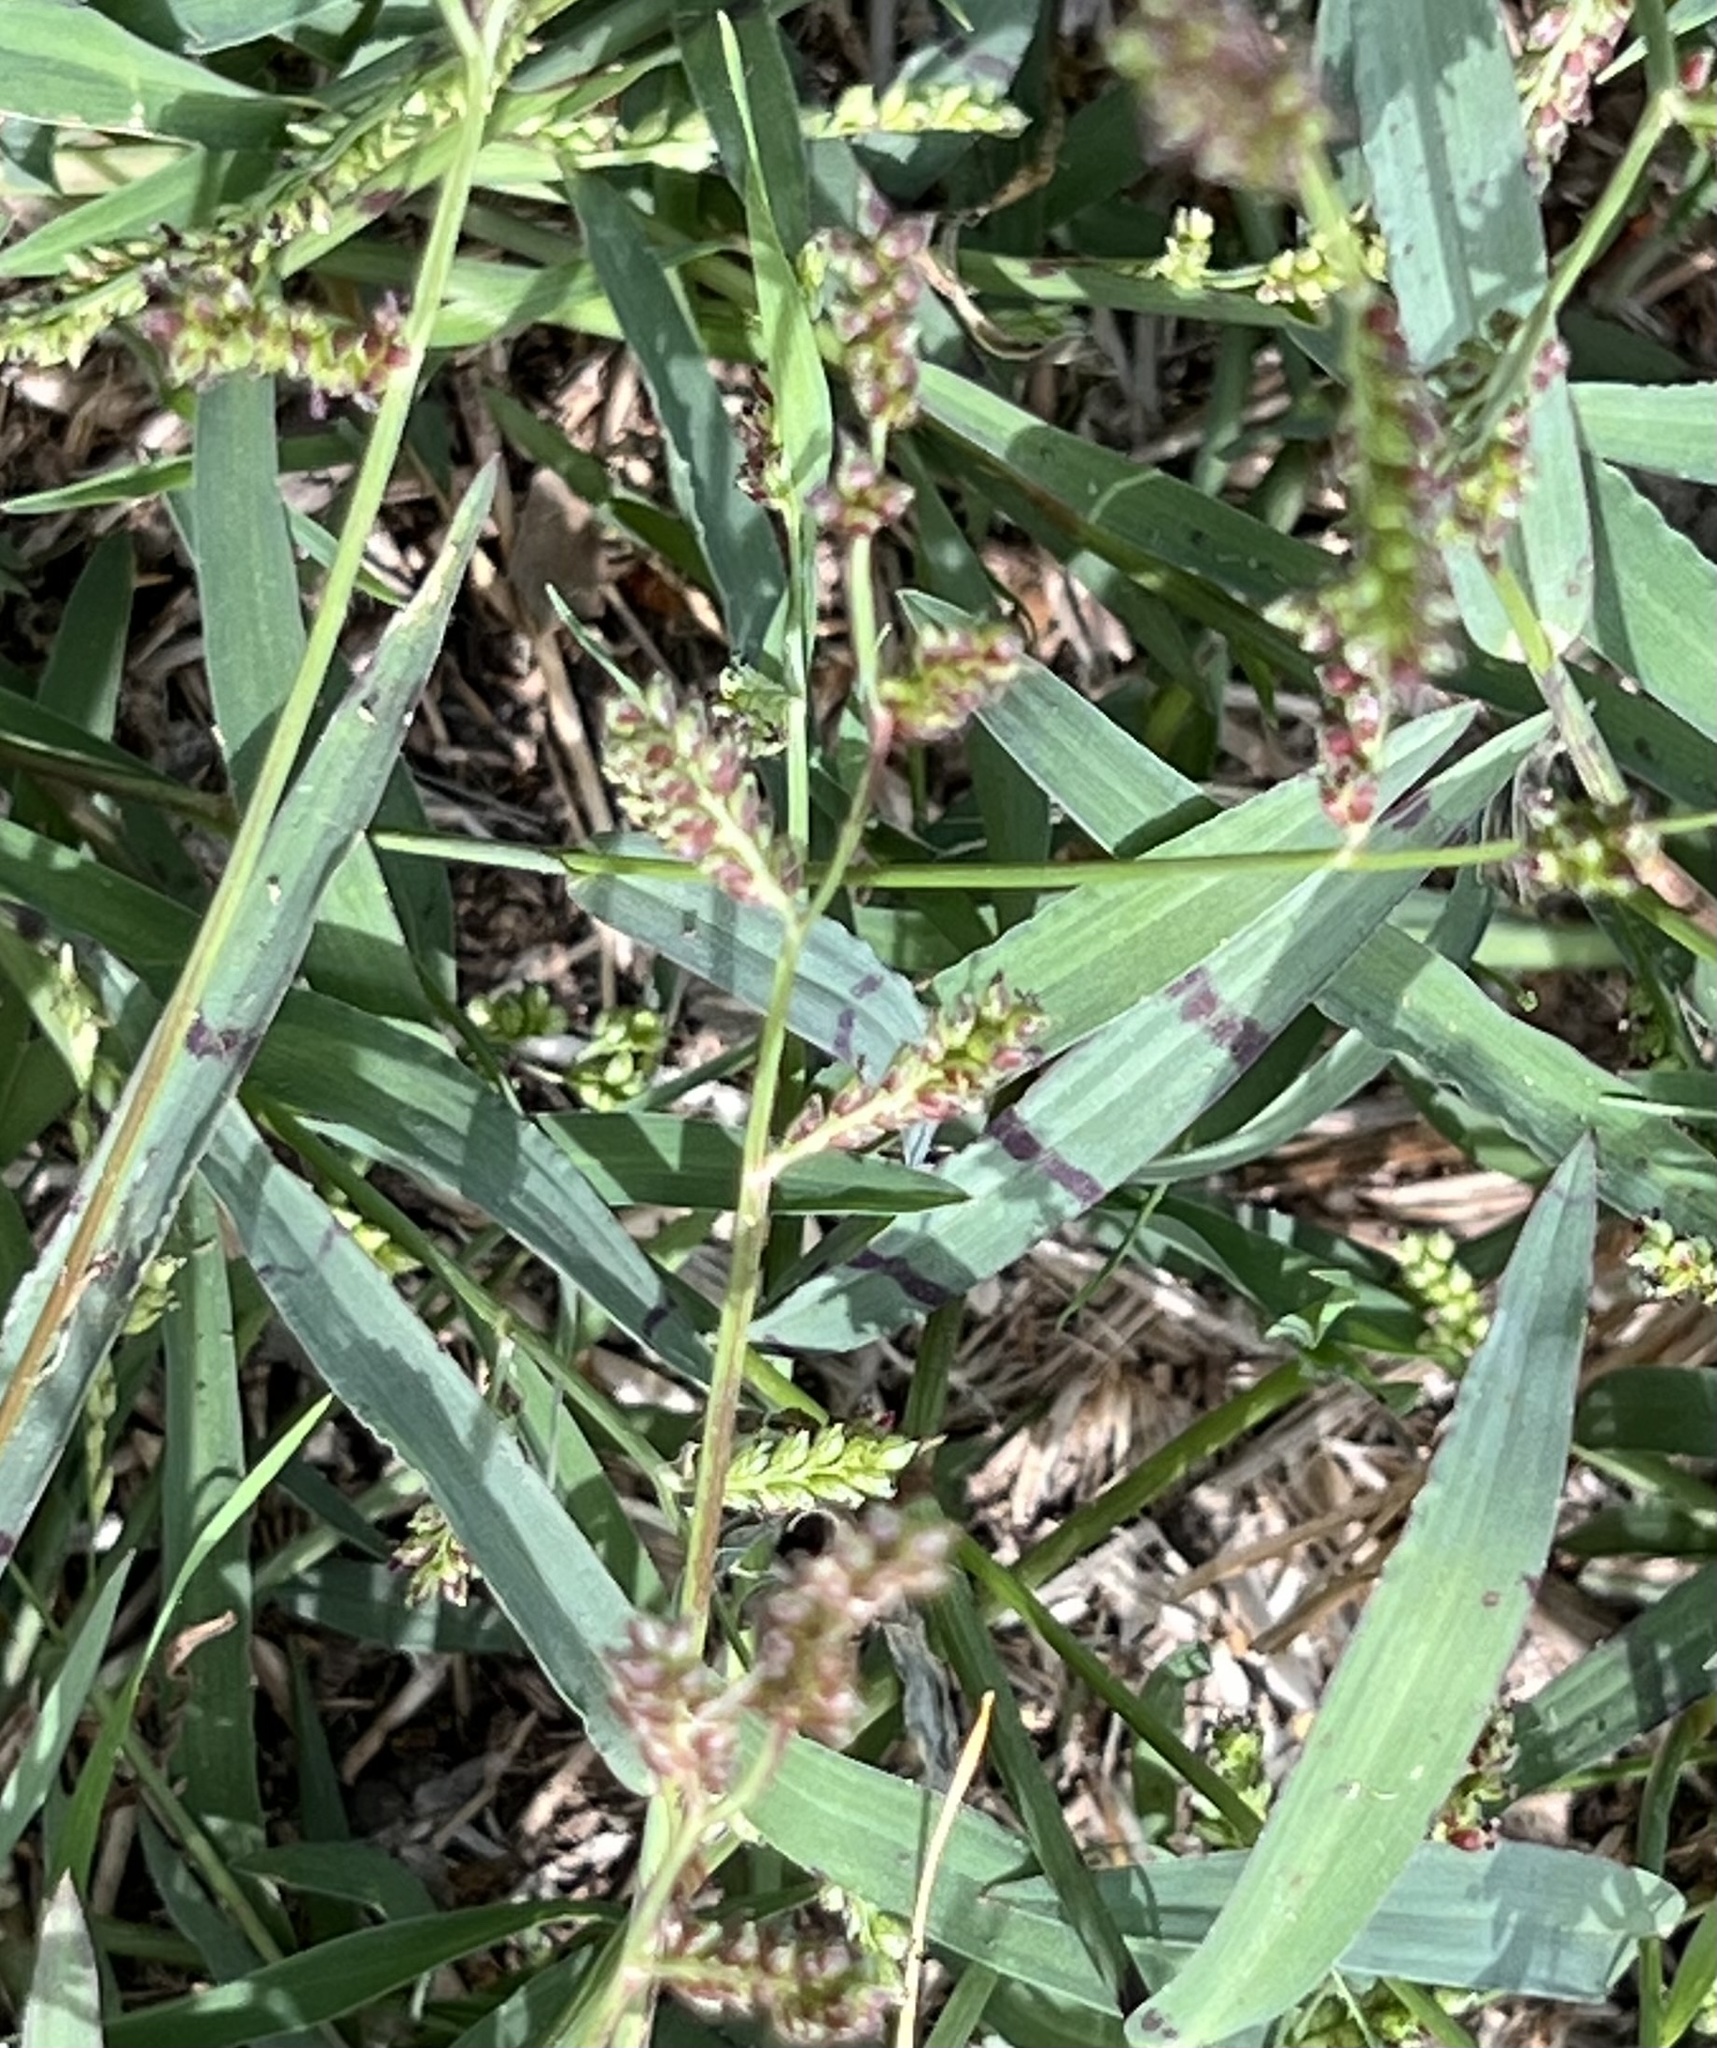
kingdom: Plantae
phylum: Tracheophyta
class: Liliopsida
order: Poales
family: Poaceae
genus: Echinochloa
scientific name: Echinochloa colonum
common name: Jungle rice
